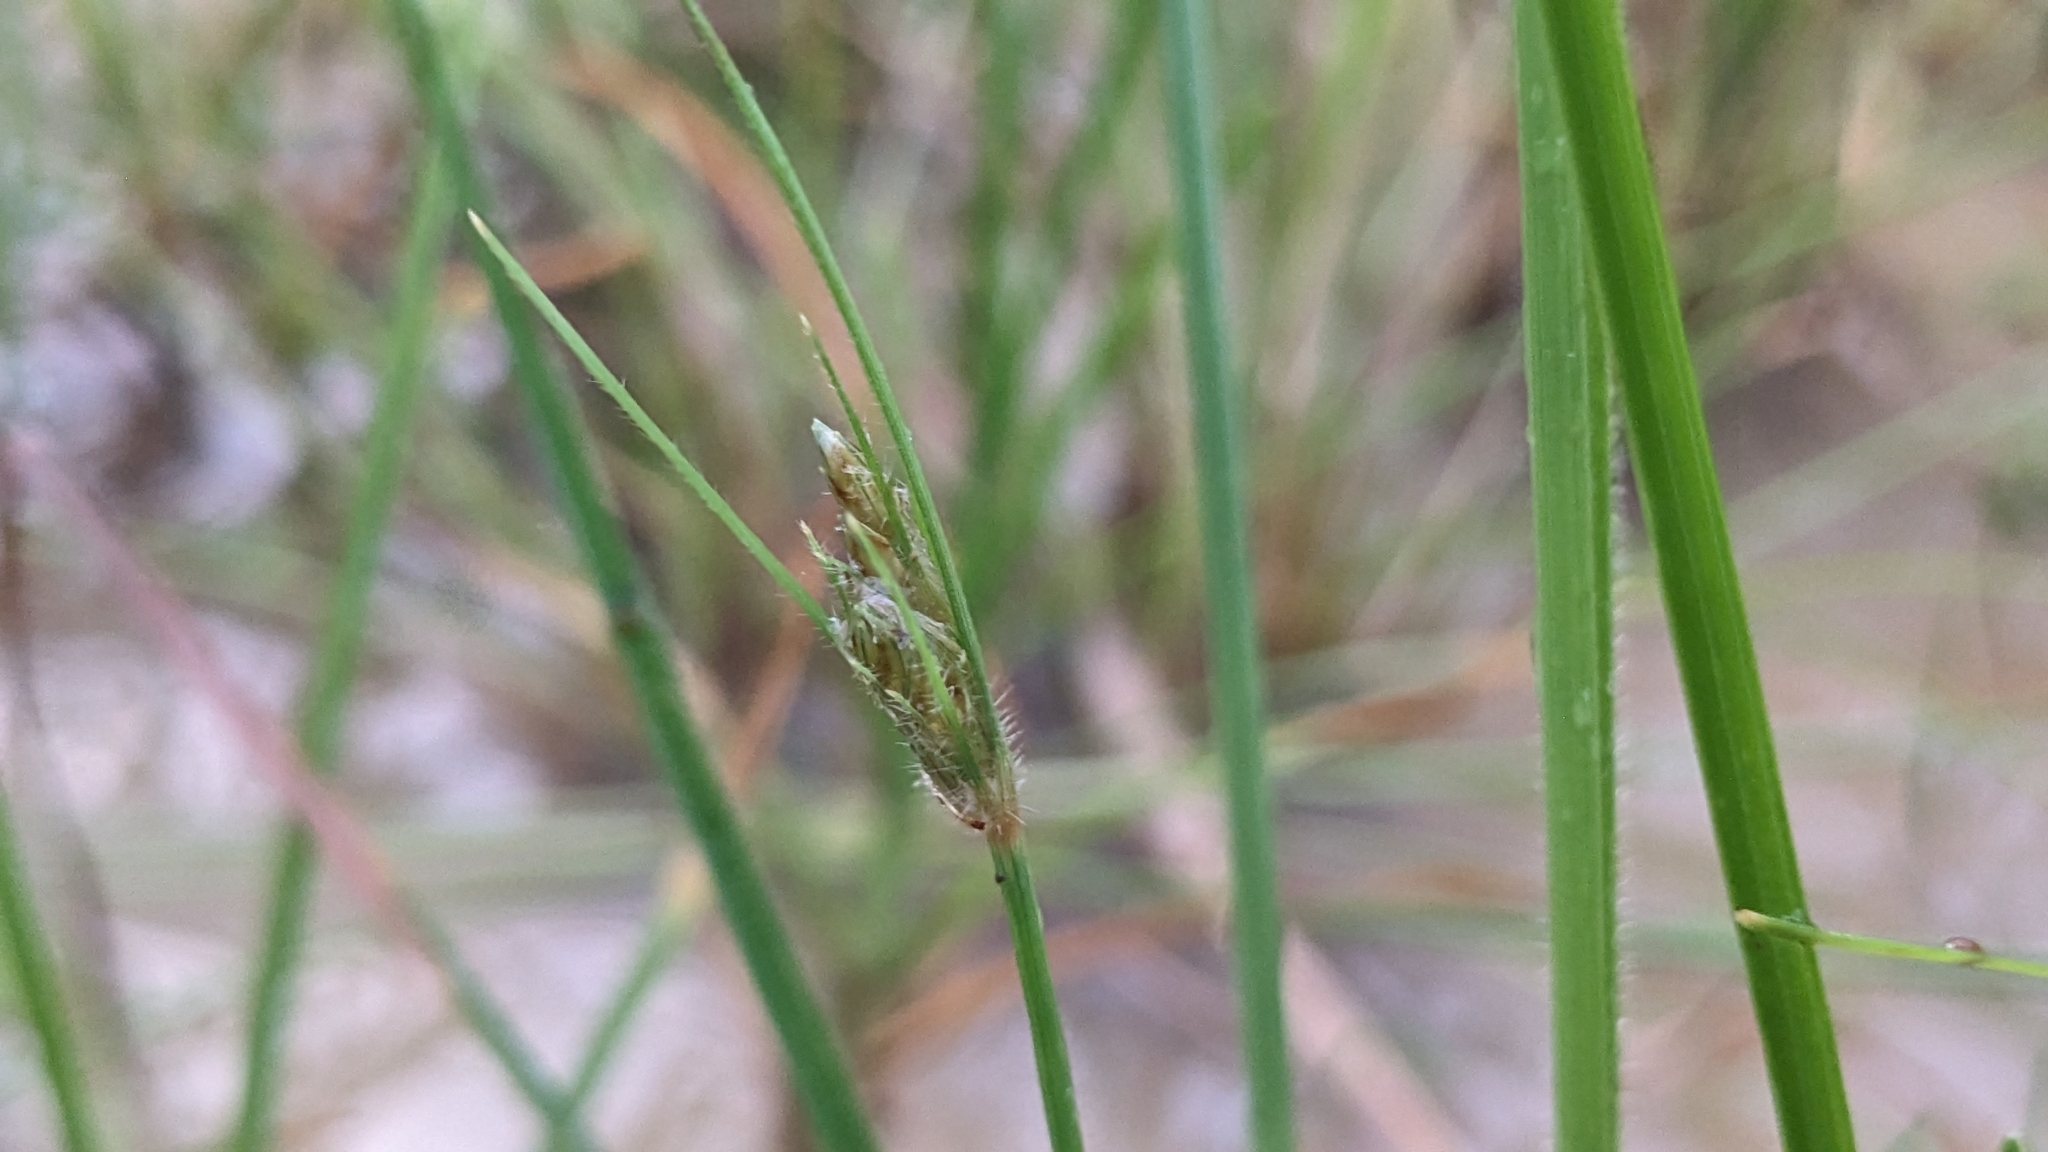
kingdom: Plantae
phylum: Tracheophyta
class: Liliopsida
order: Poales
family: Cyperaceae
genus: Fimbristylis
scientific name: Fimbristylis dichotoma
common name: Forked fimbry
